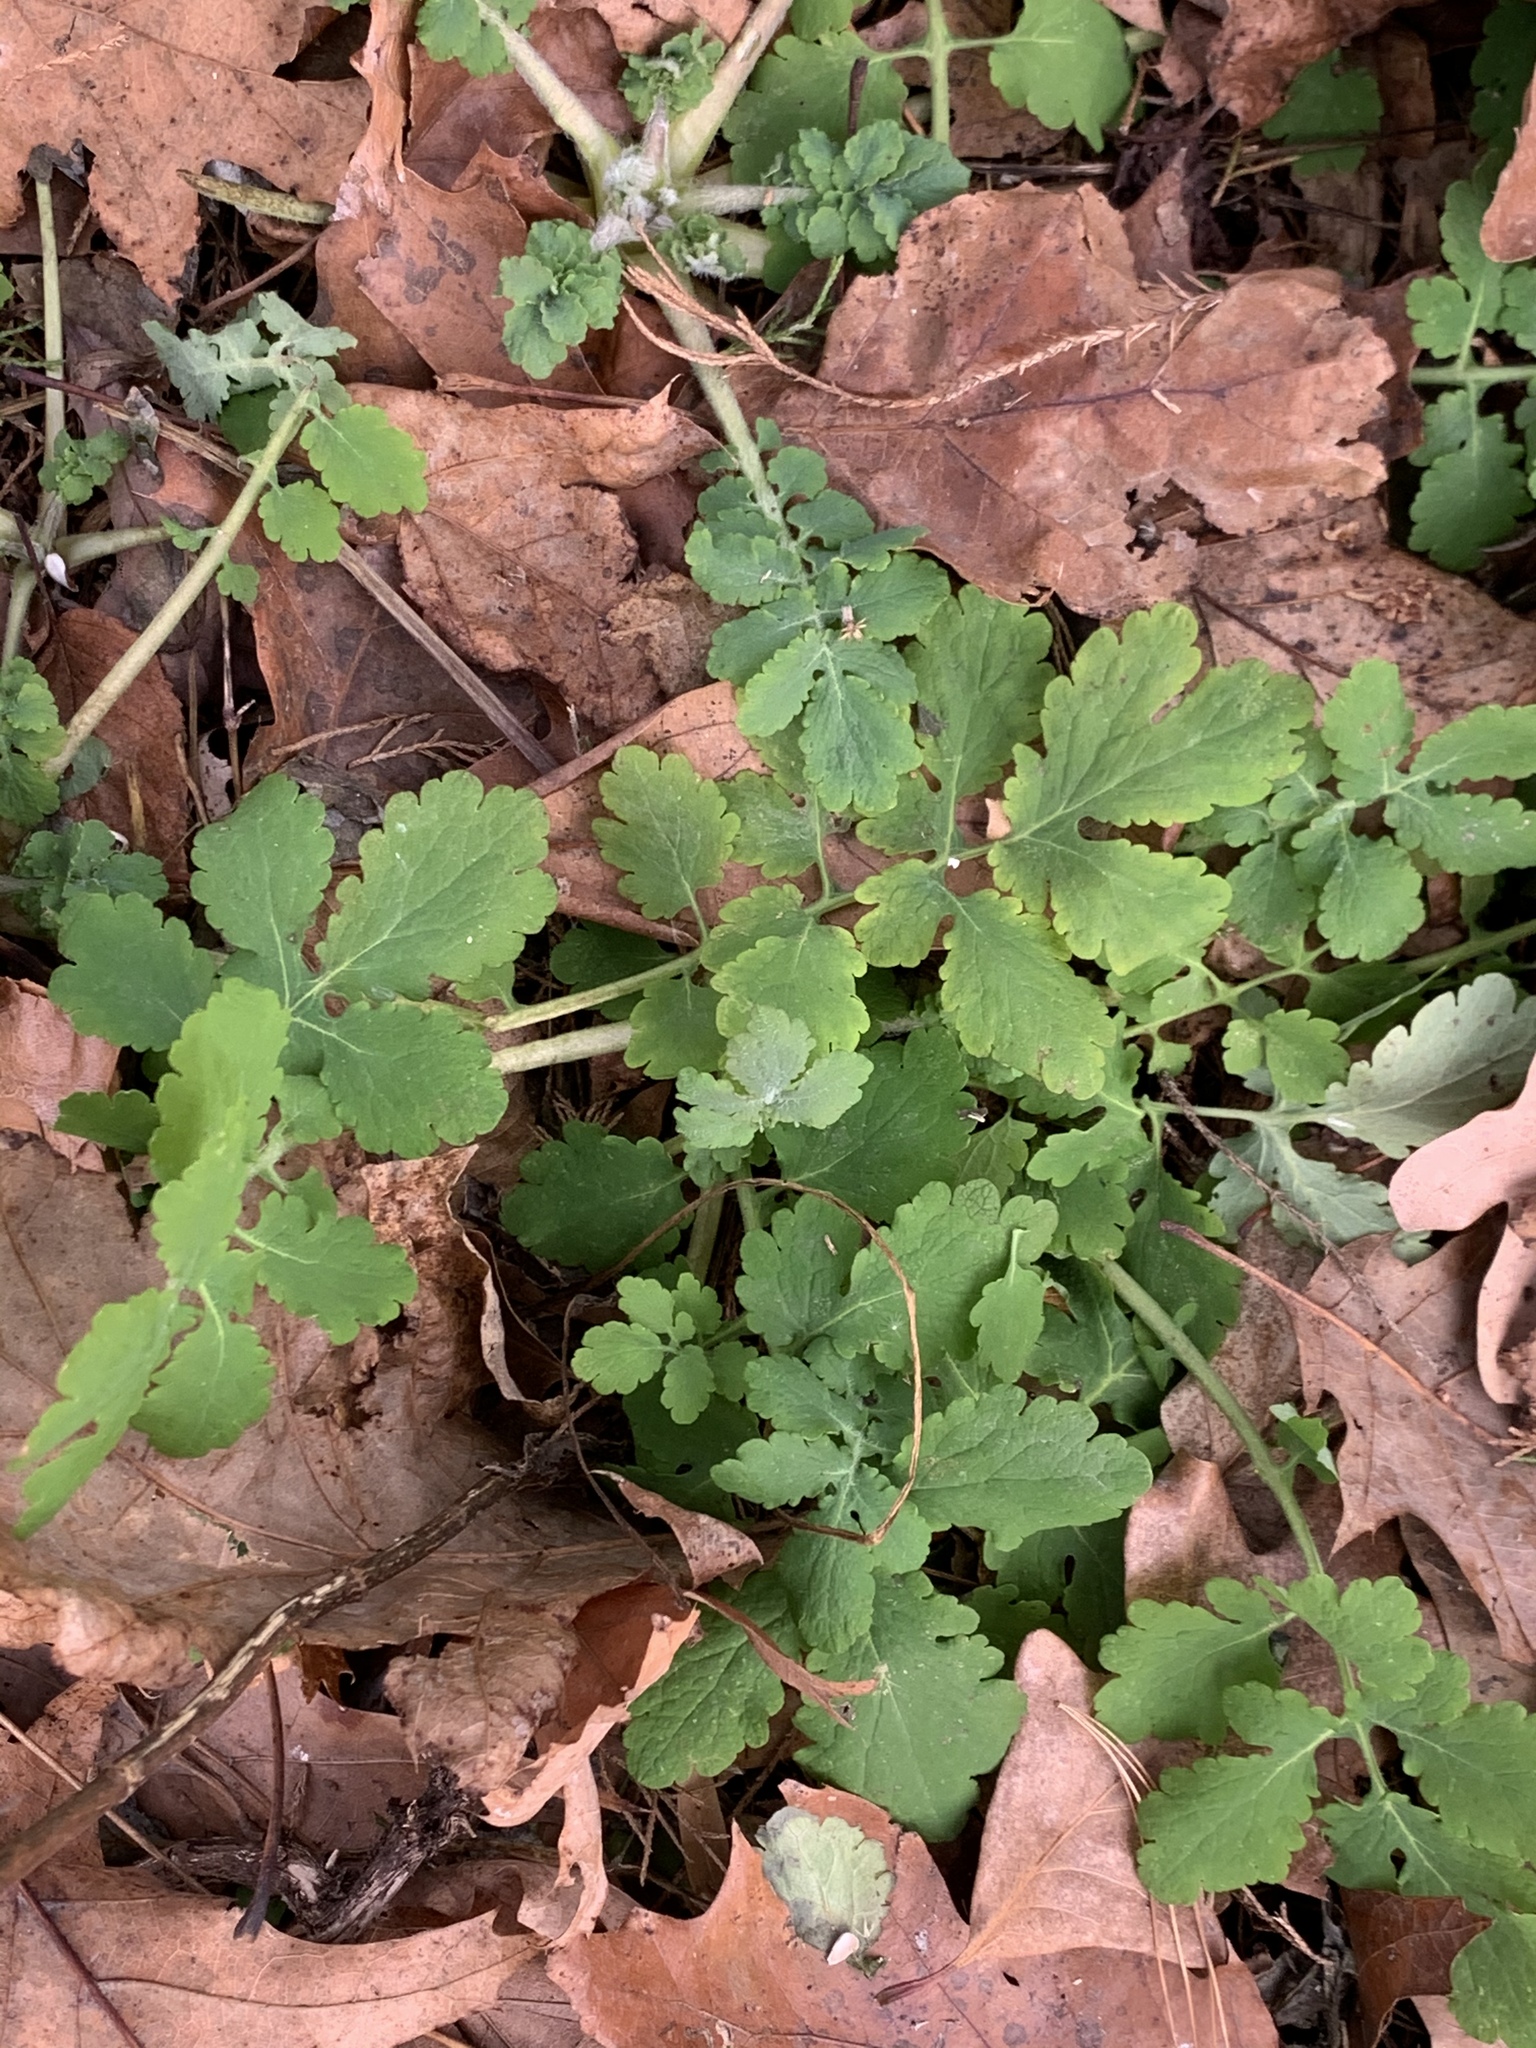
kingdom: Plantae
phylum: Tracheophyta
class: Magnoliopsida
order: Ranunculales
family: Papaveraceae
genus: Chelidonium
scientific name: Chelidonium majus
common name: Greater celandine
